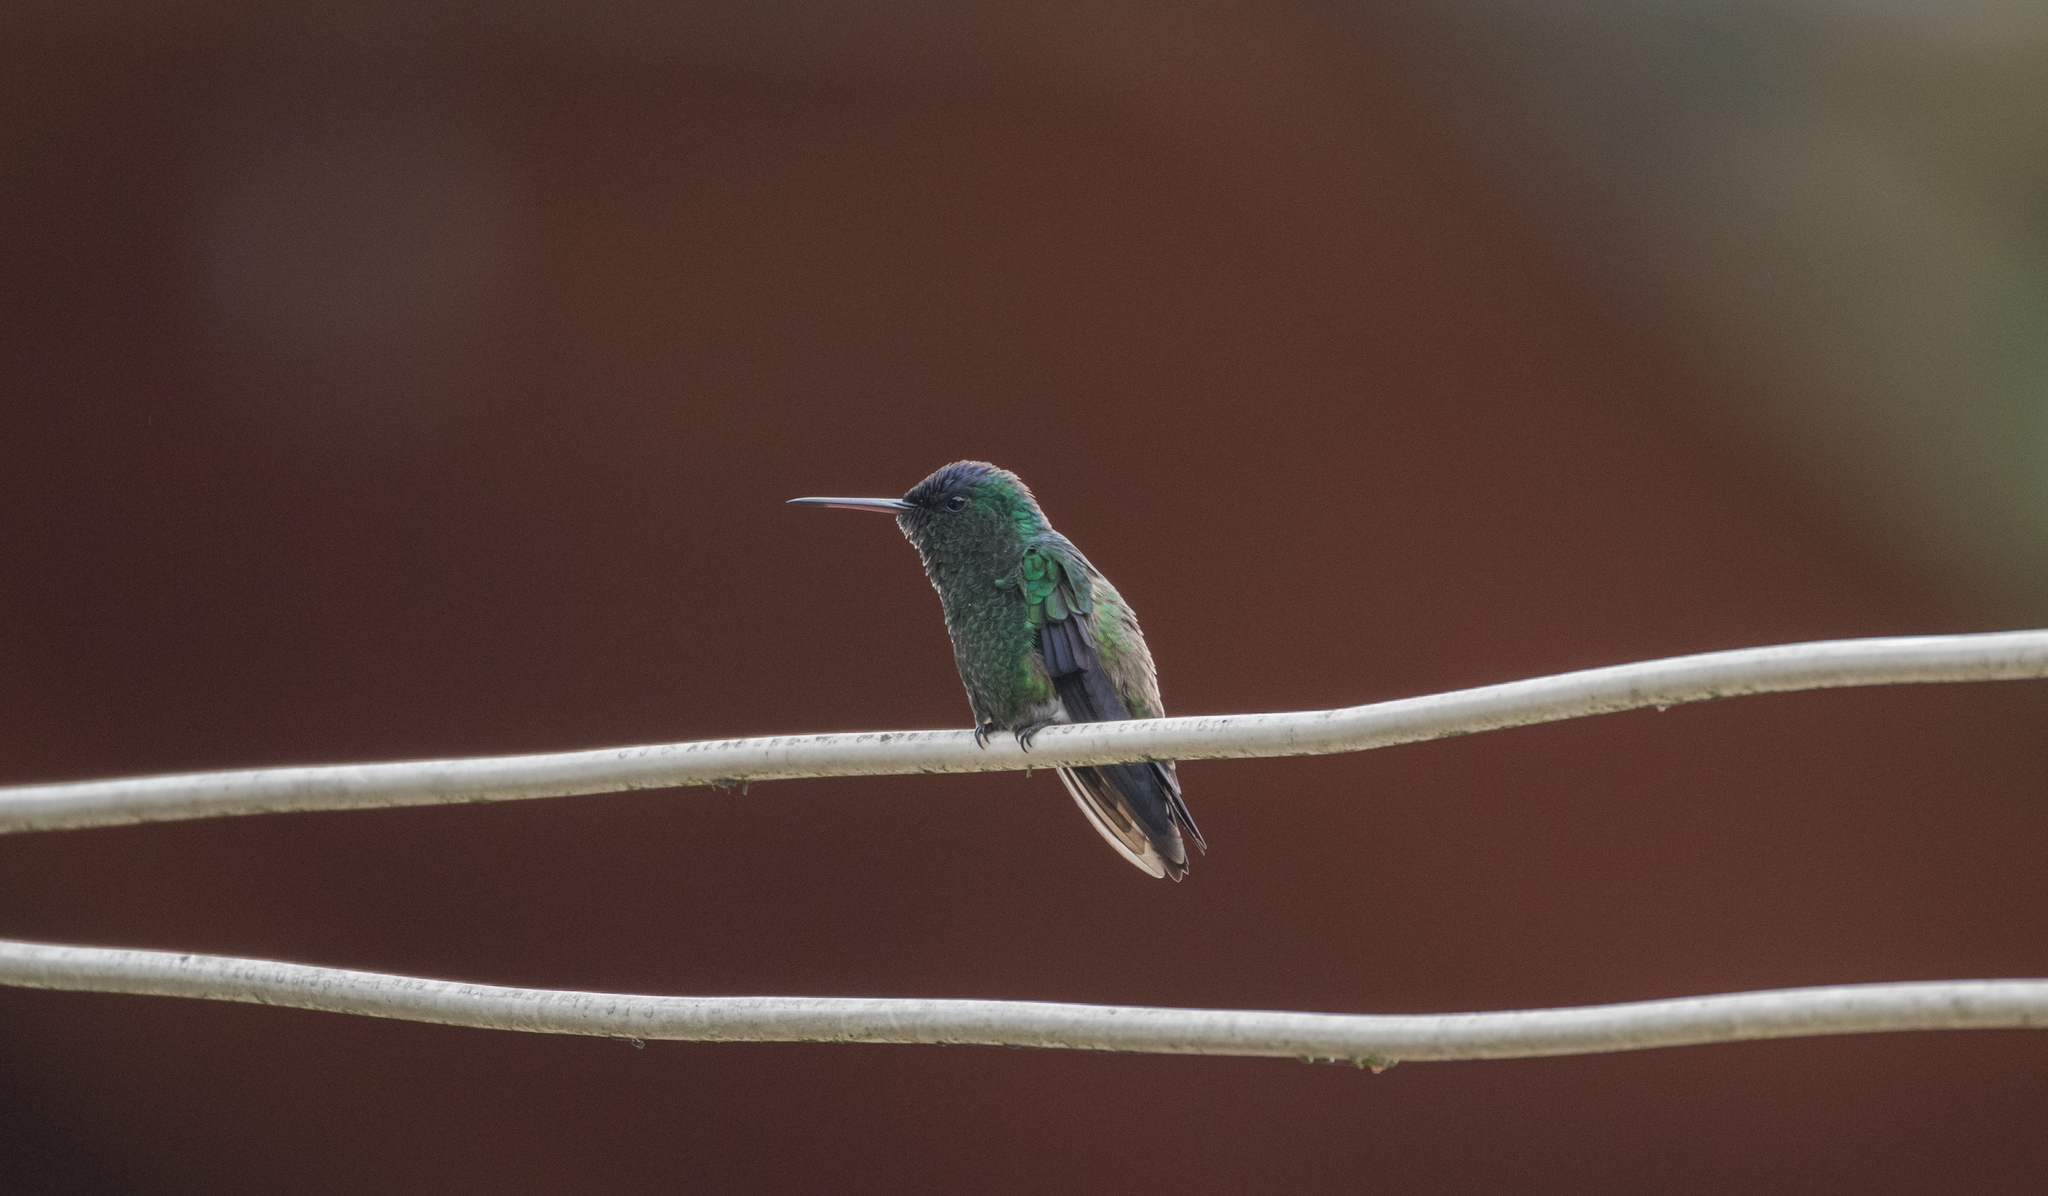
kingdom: Animalia
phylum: Chordata
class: Aves
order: Apodiformes
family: Trochilidae
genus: Saucerottia
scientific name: Saucerottia cyanifrons
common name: Indigo-capped hummingbird
